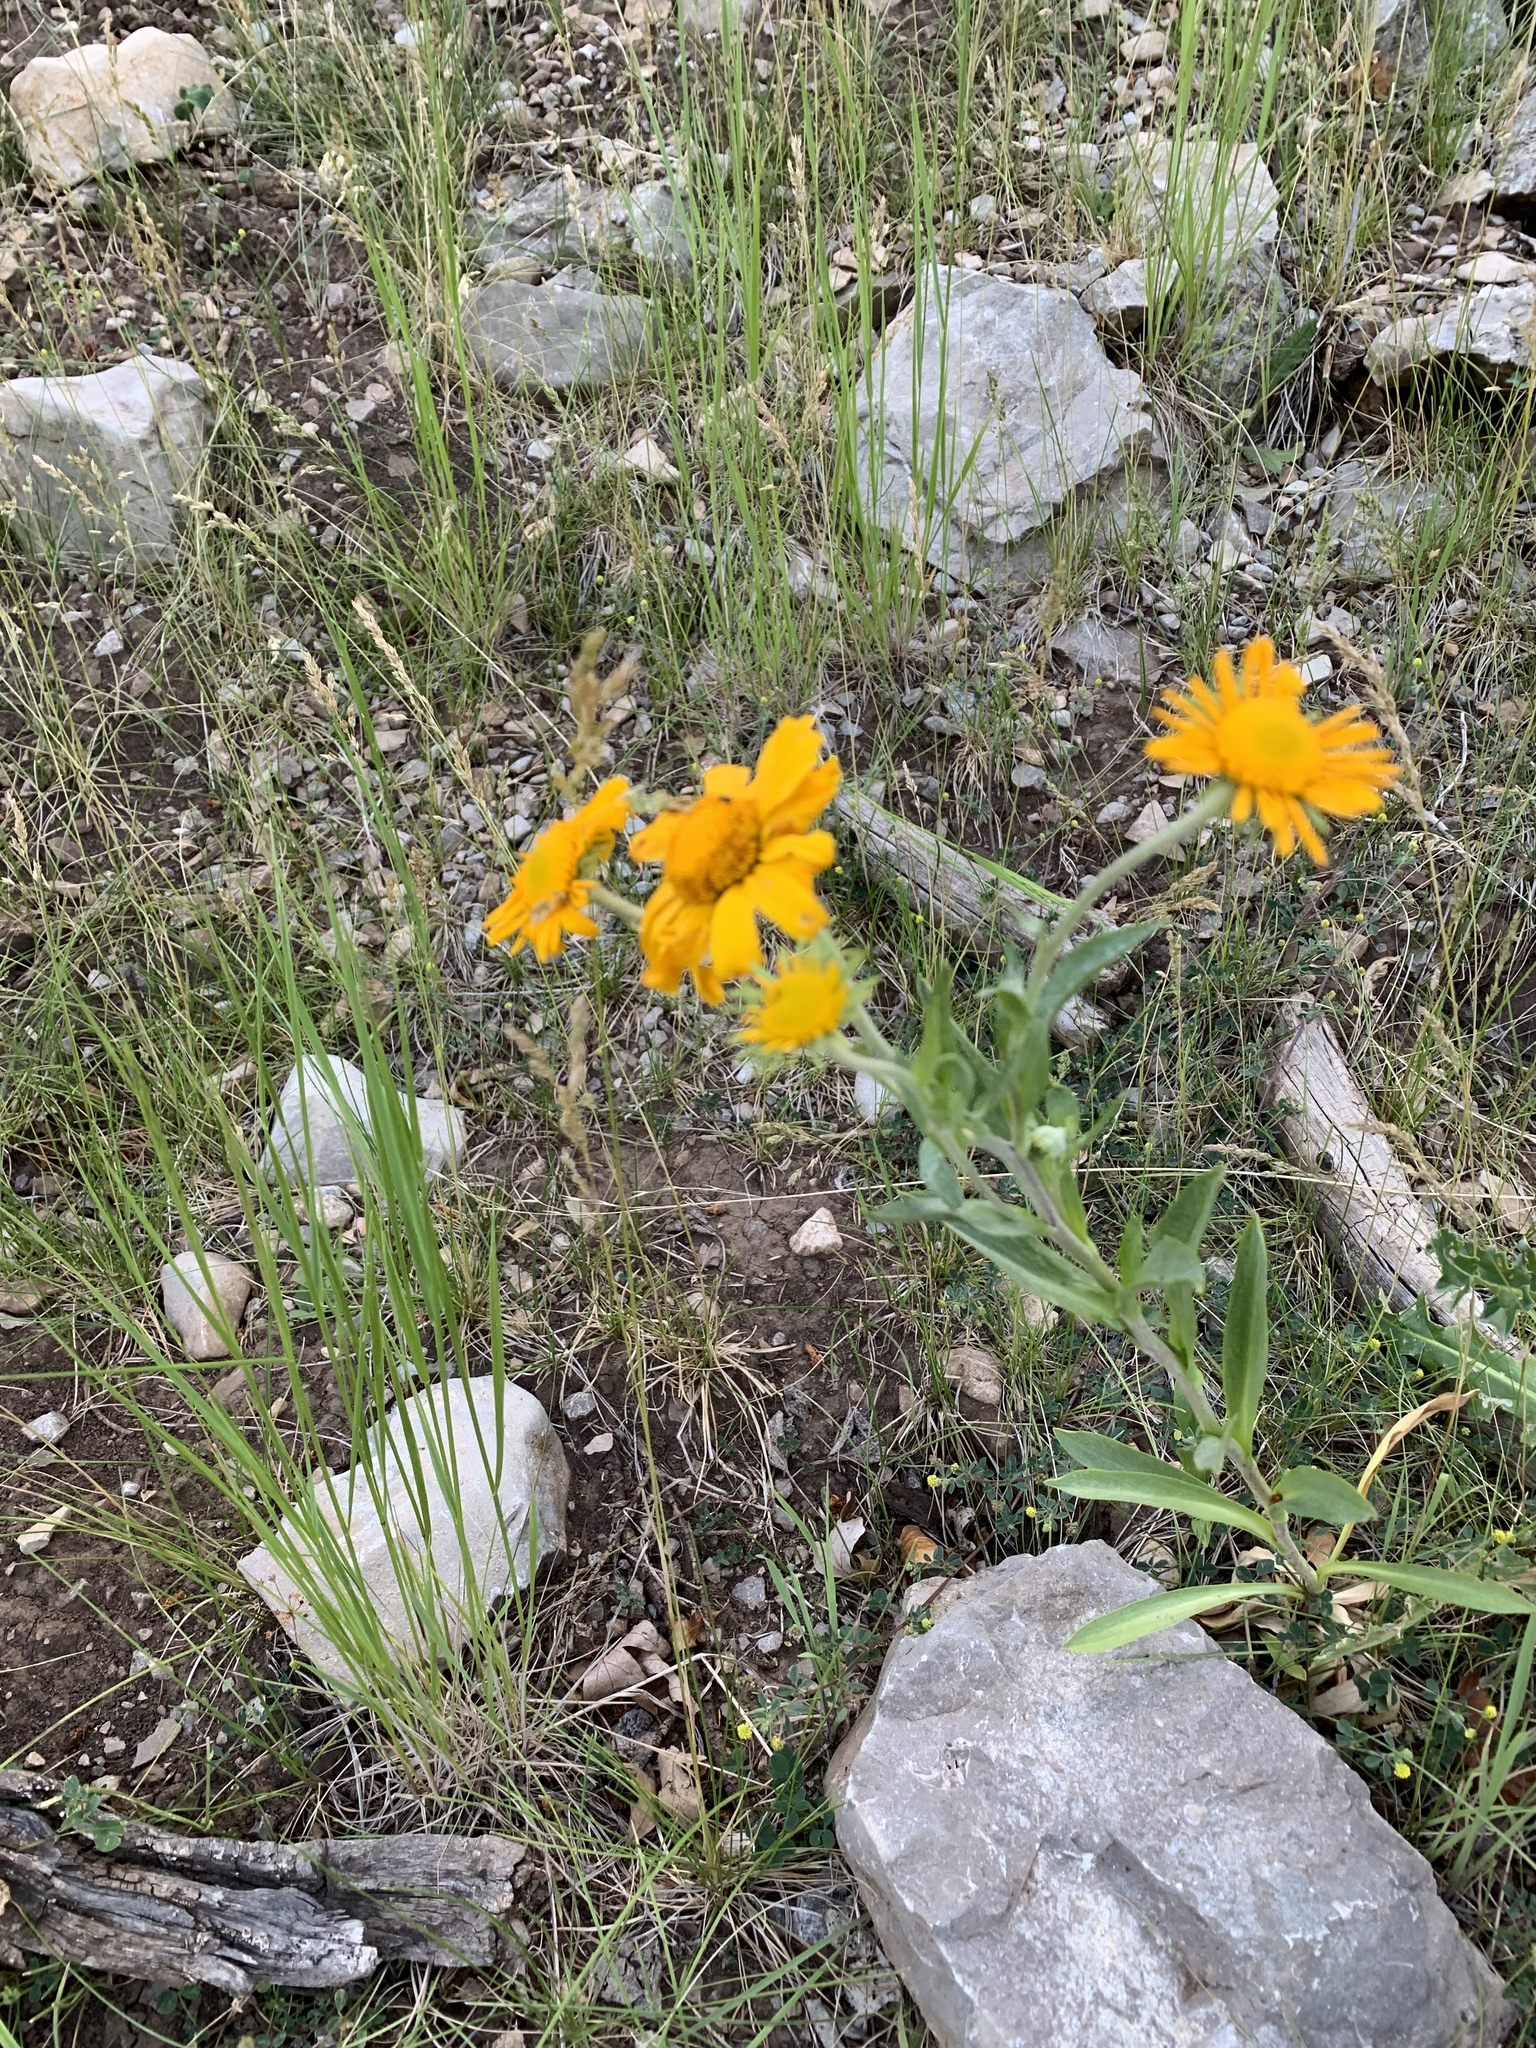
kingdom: Plantae
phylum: Tracheophyta
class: Magnoliopsida
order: Asterales
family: Asteraceae
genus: Hymenoxys
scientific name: Hymenoxys hoopesii
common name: Orange-sneezeweed
